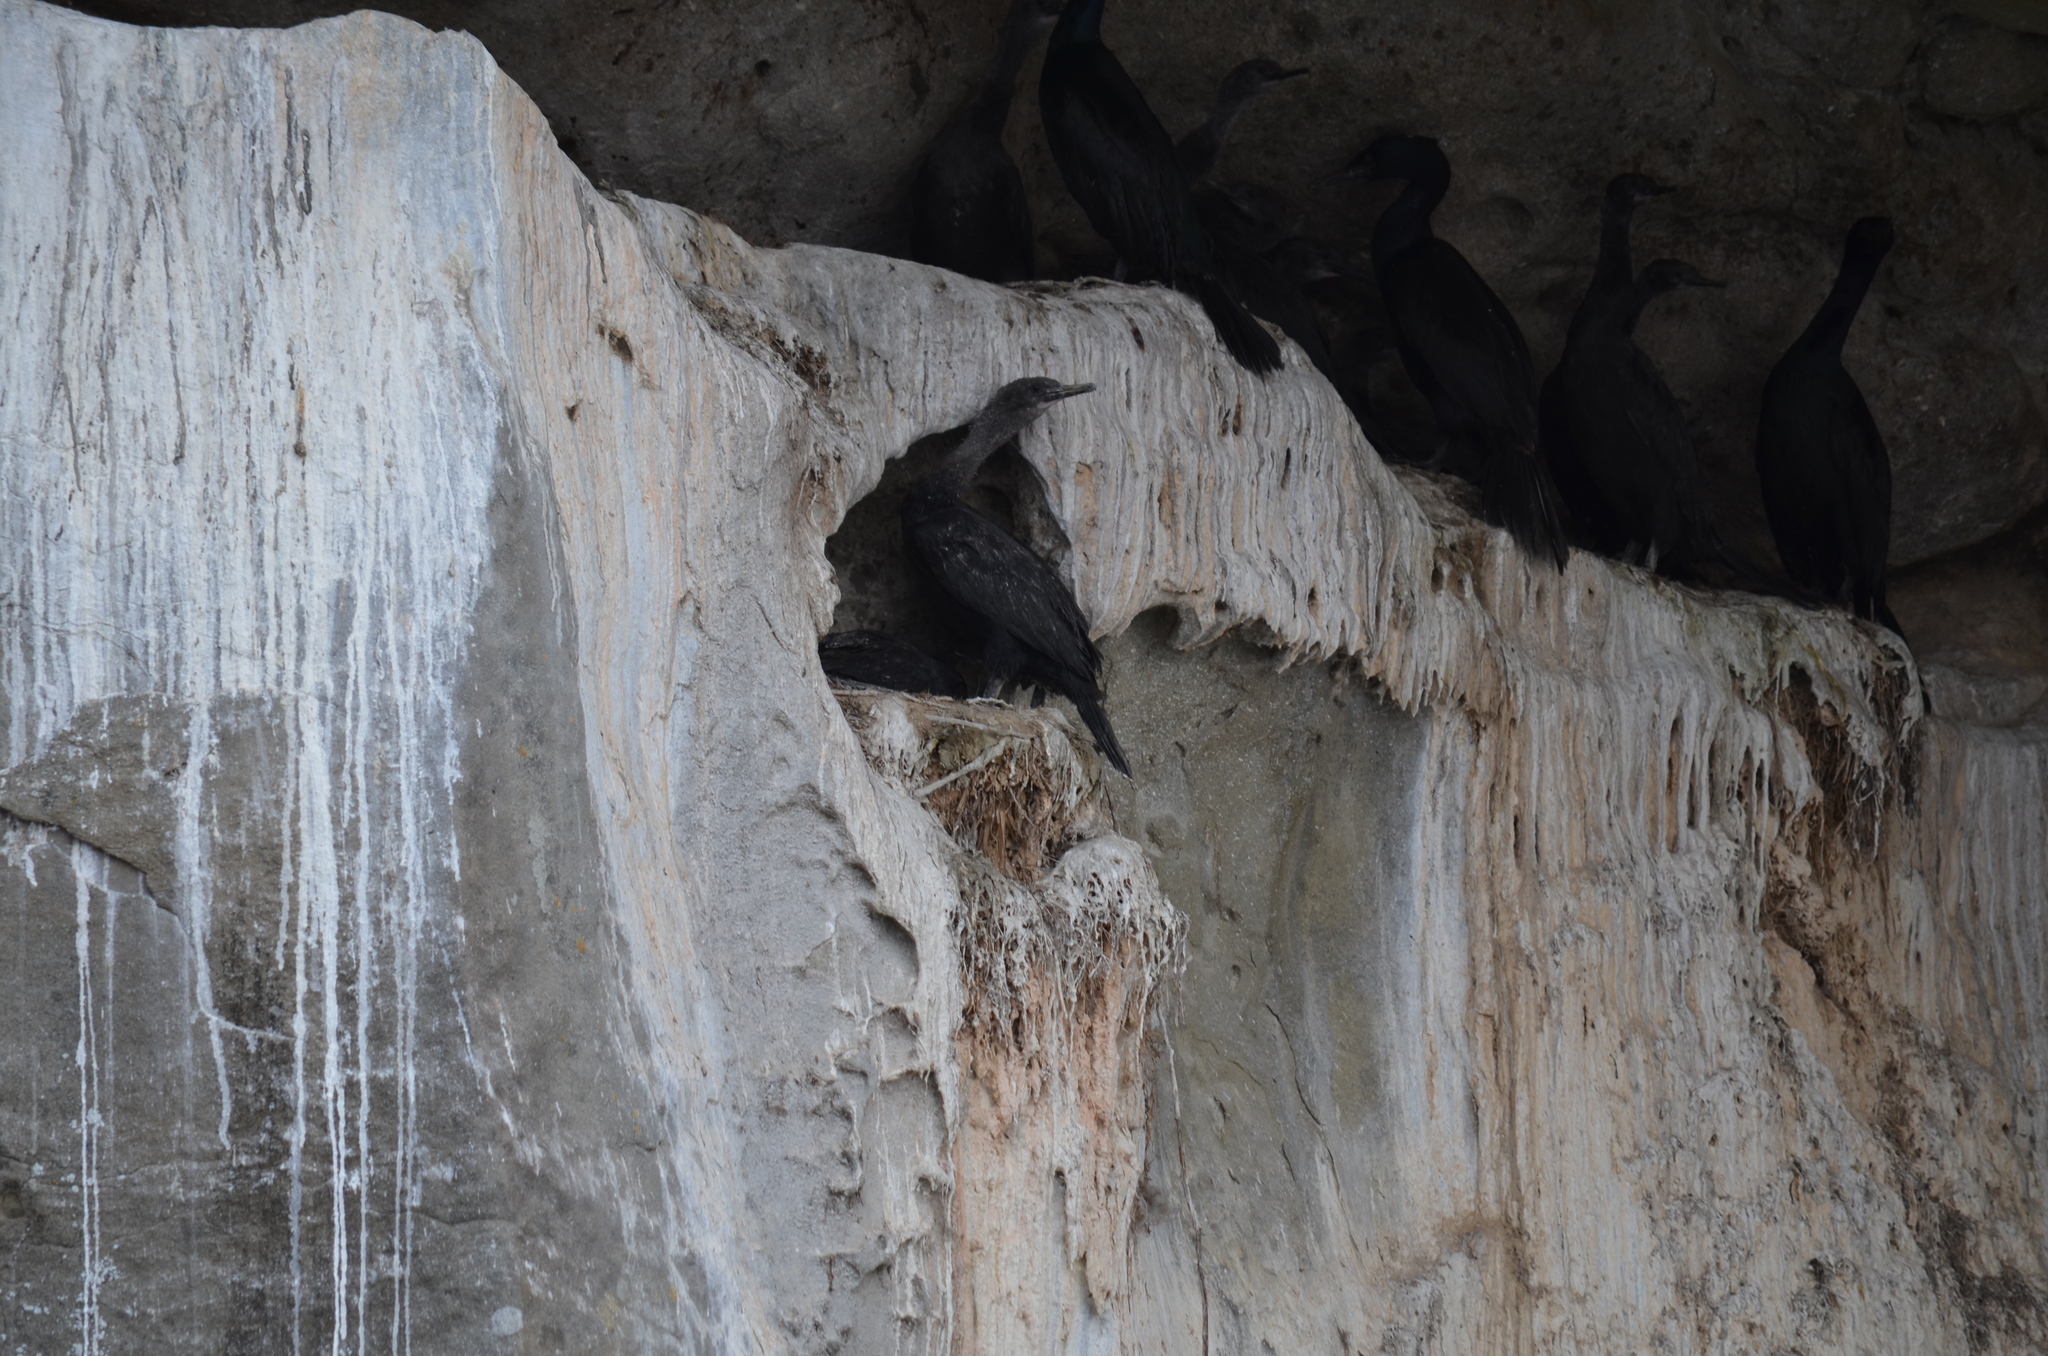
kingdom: Animalia
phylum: Chordata
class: Aves
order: Suliformes
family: Phalacrocoracidae
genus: Phalacrocorax
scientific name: Phalacrocorax pelagicus
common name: Pelagic cormorant
